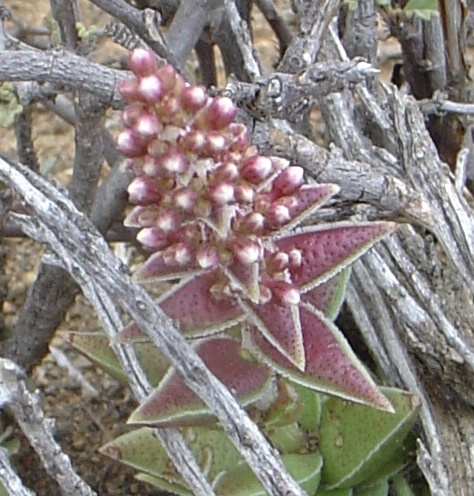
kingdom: Plantae
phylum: Tracheophyta
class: Magnoliopsida
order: Saxifragales
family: Crassulaceae
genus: Crassula
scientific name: Crassula capitella
